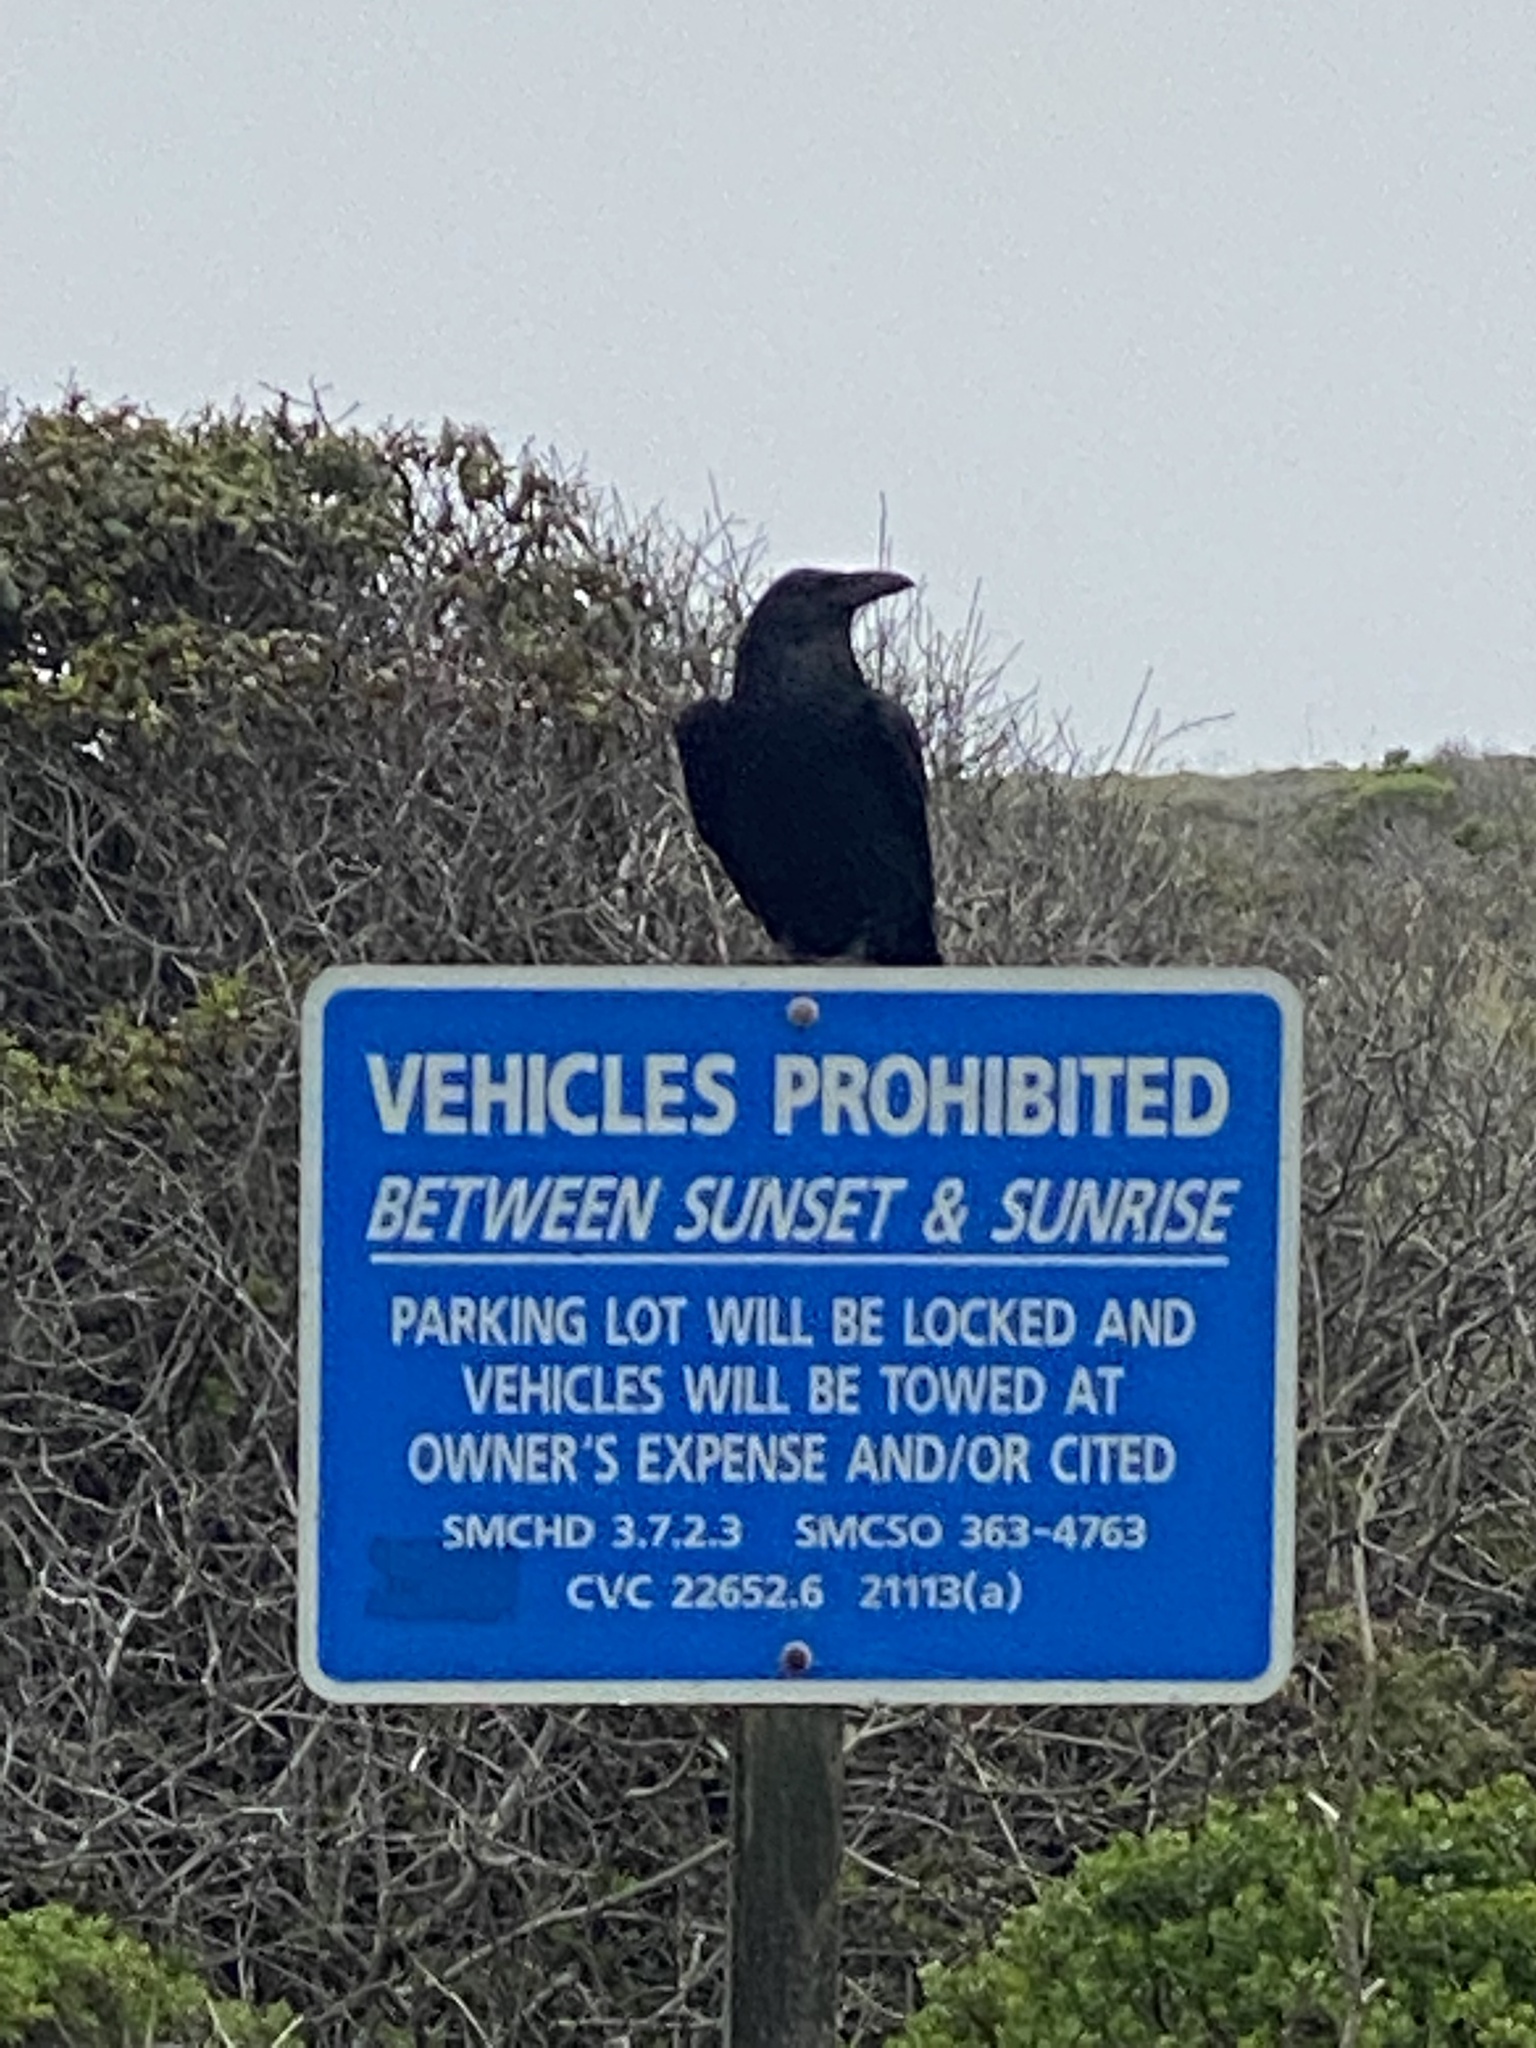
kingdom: Animalia
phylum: Chordata
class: Aves
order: Passeriformes
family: Corvidae
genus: Corvus
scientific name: Corvus corax
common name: Common raven
